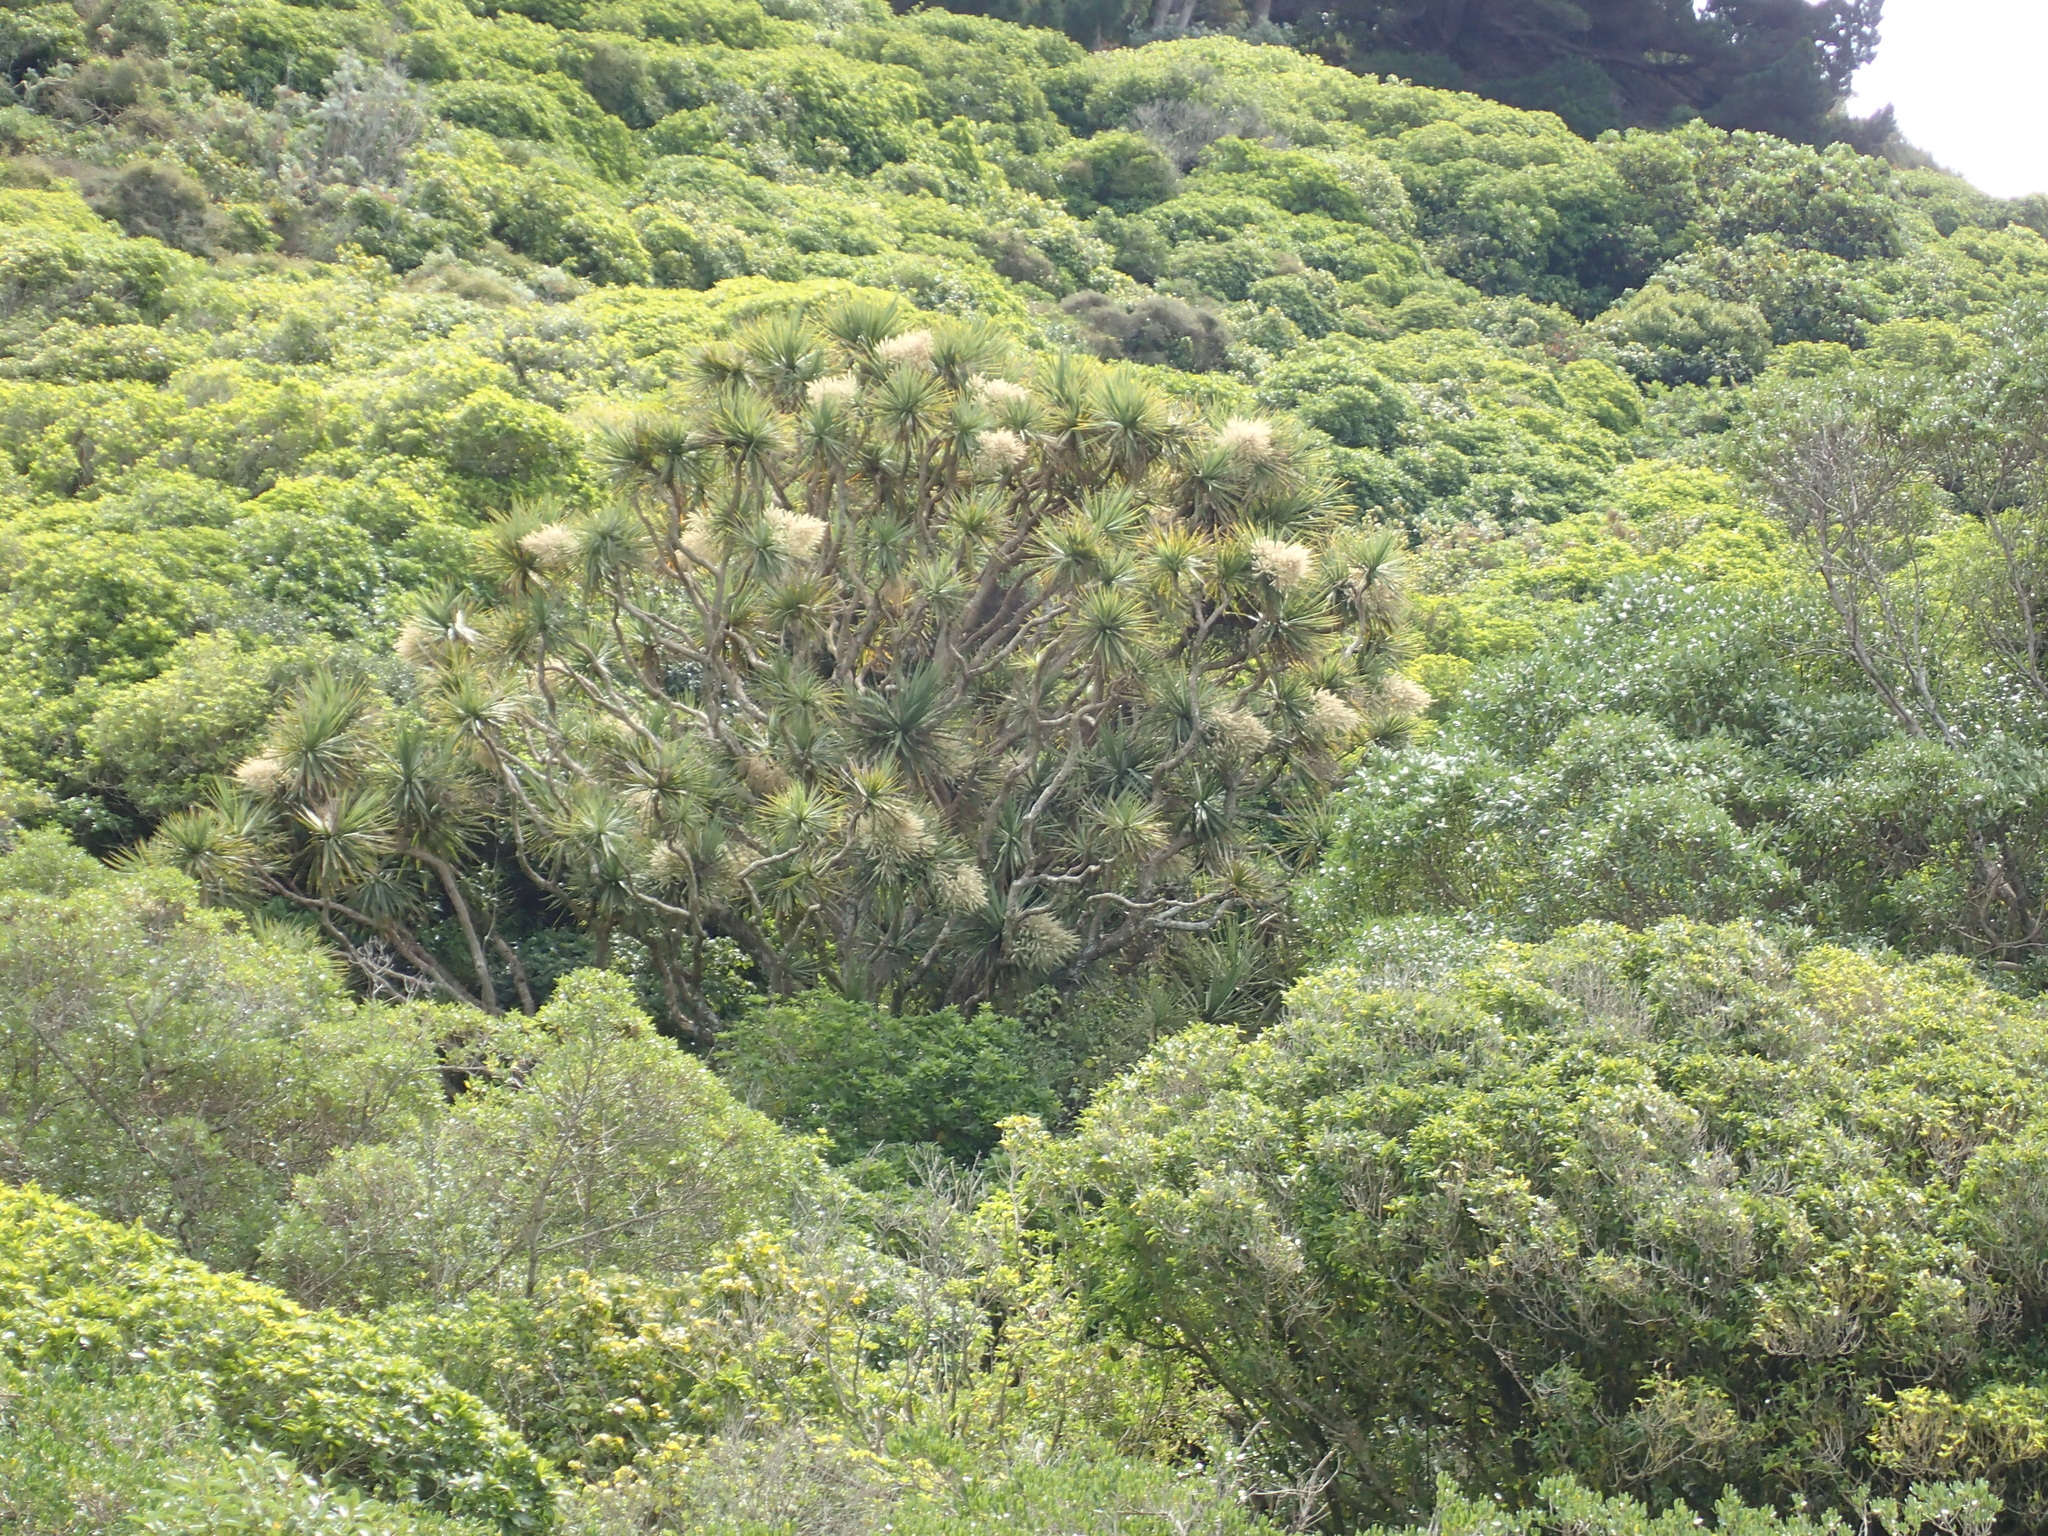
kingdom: Plantae
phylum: Tracheophyta
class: Liliopsida
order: Asparagales
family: Asparagaceae
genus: Cordyline
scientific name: Cordyline australis
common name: Cabbage-palm
